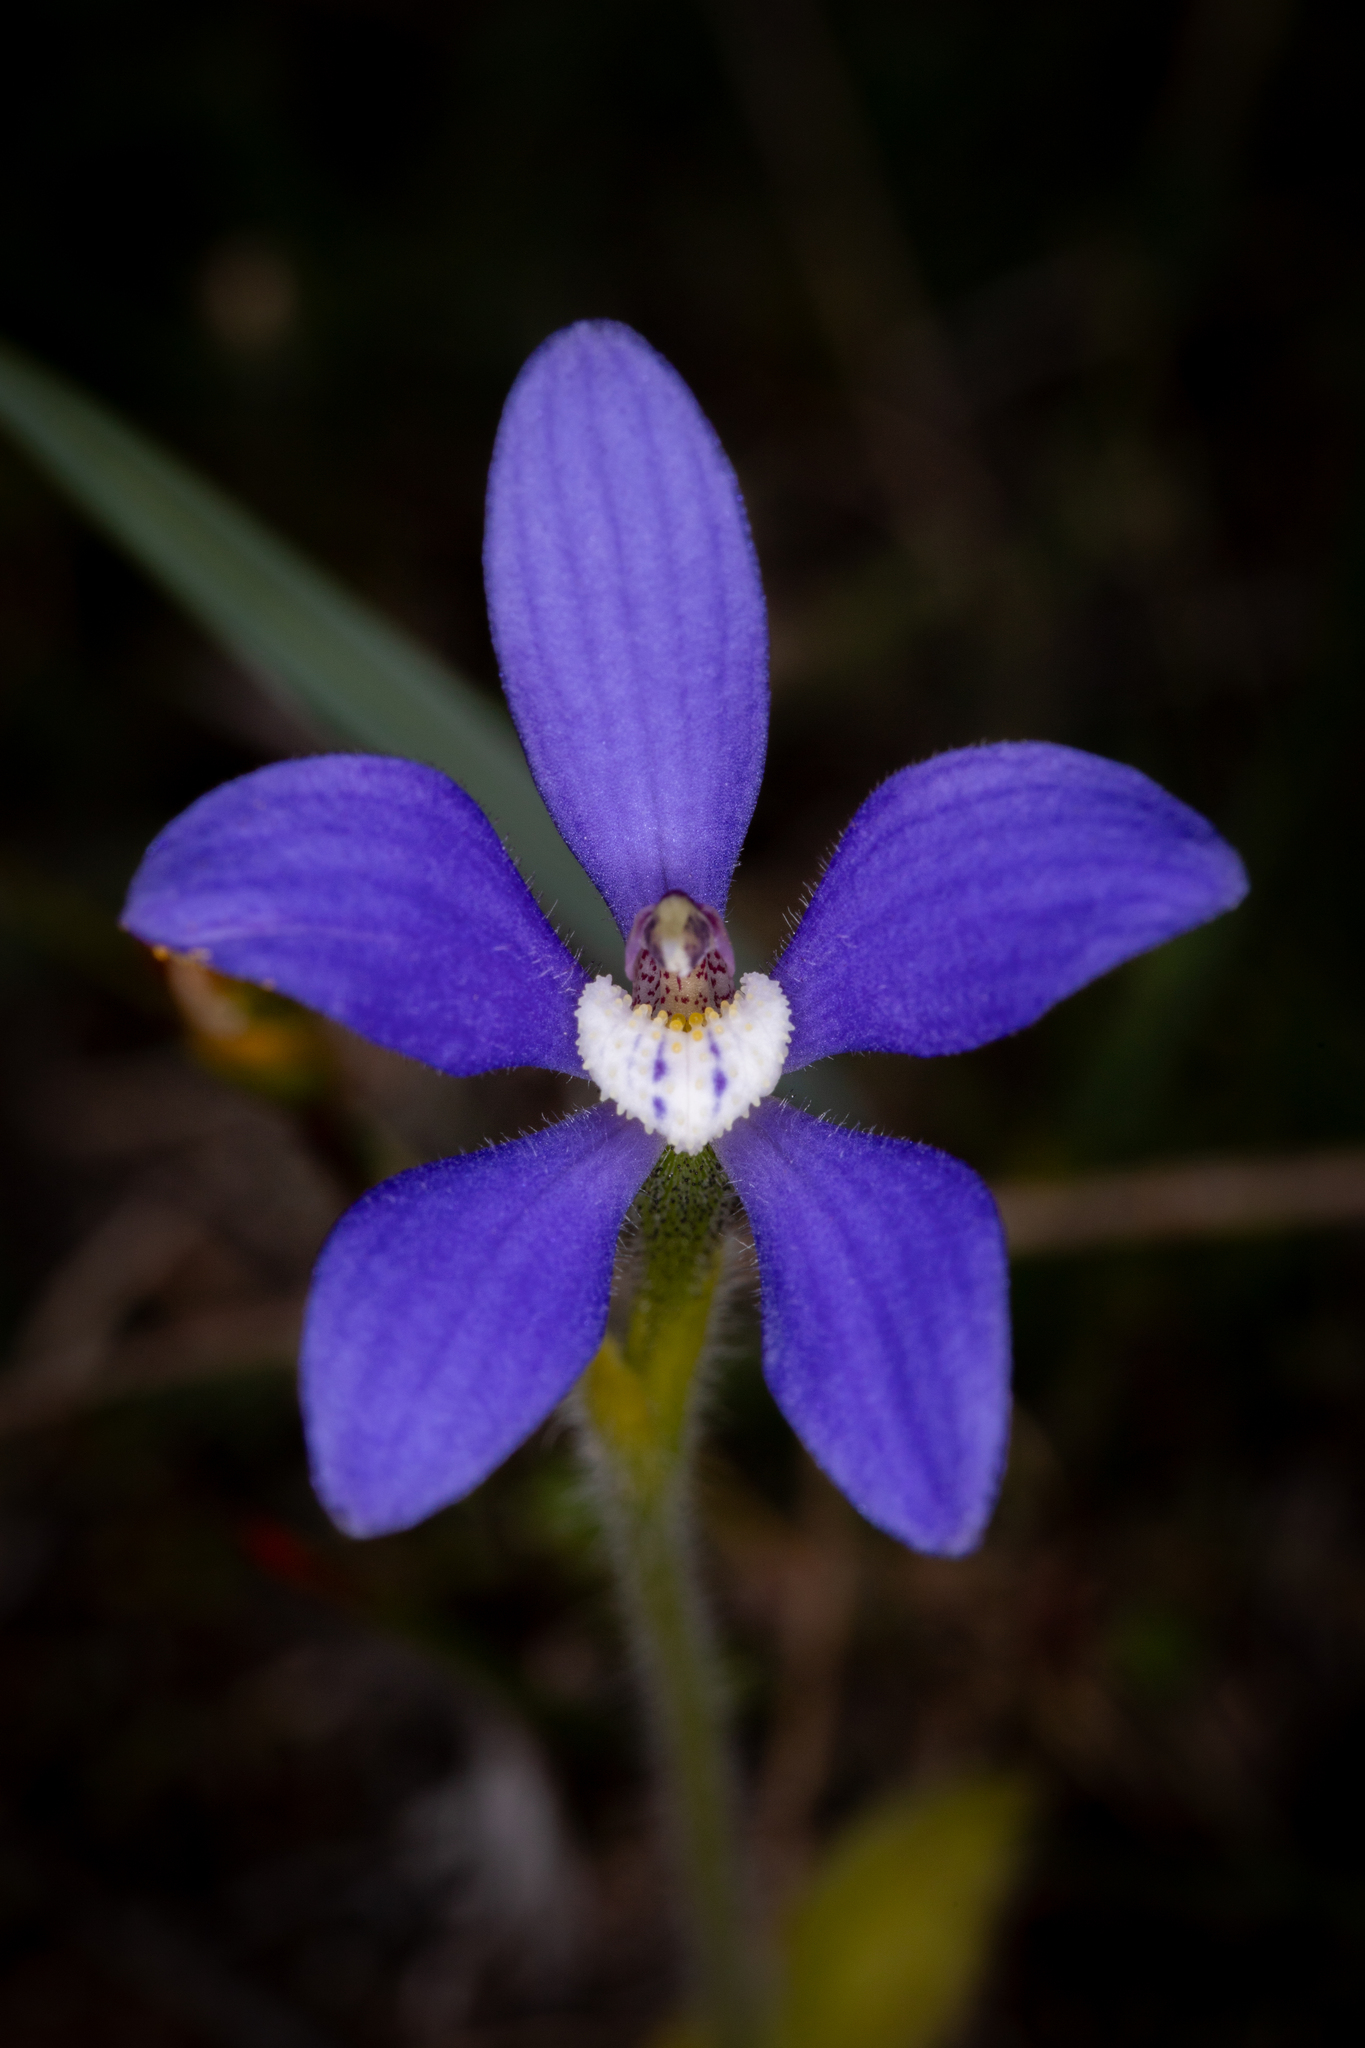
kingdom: Plantae
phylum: Tracheophyta
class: Liliopsida
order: Asparagales
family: Orchidaceae
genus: Caladenia
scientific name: Caladenia gemmata
